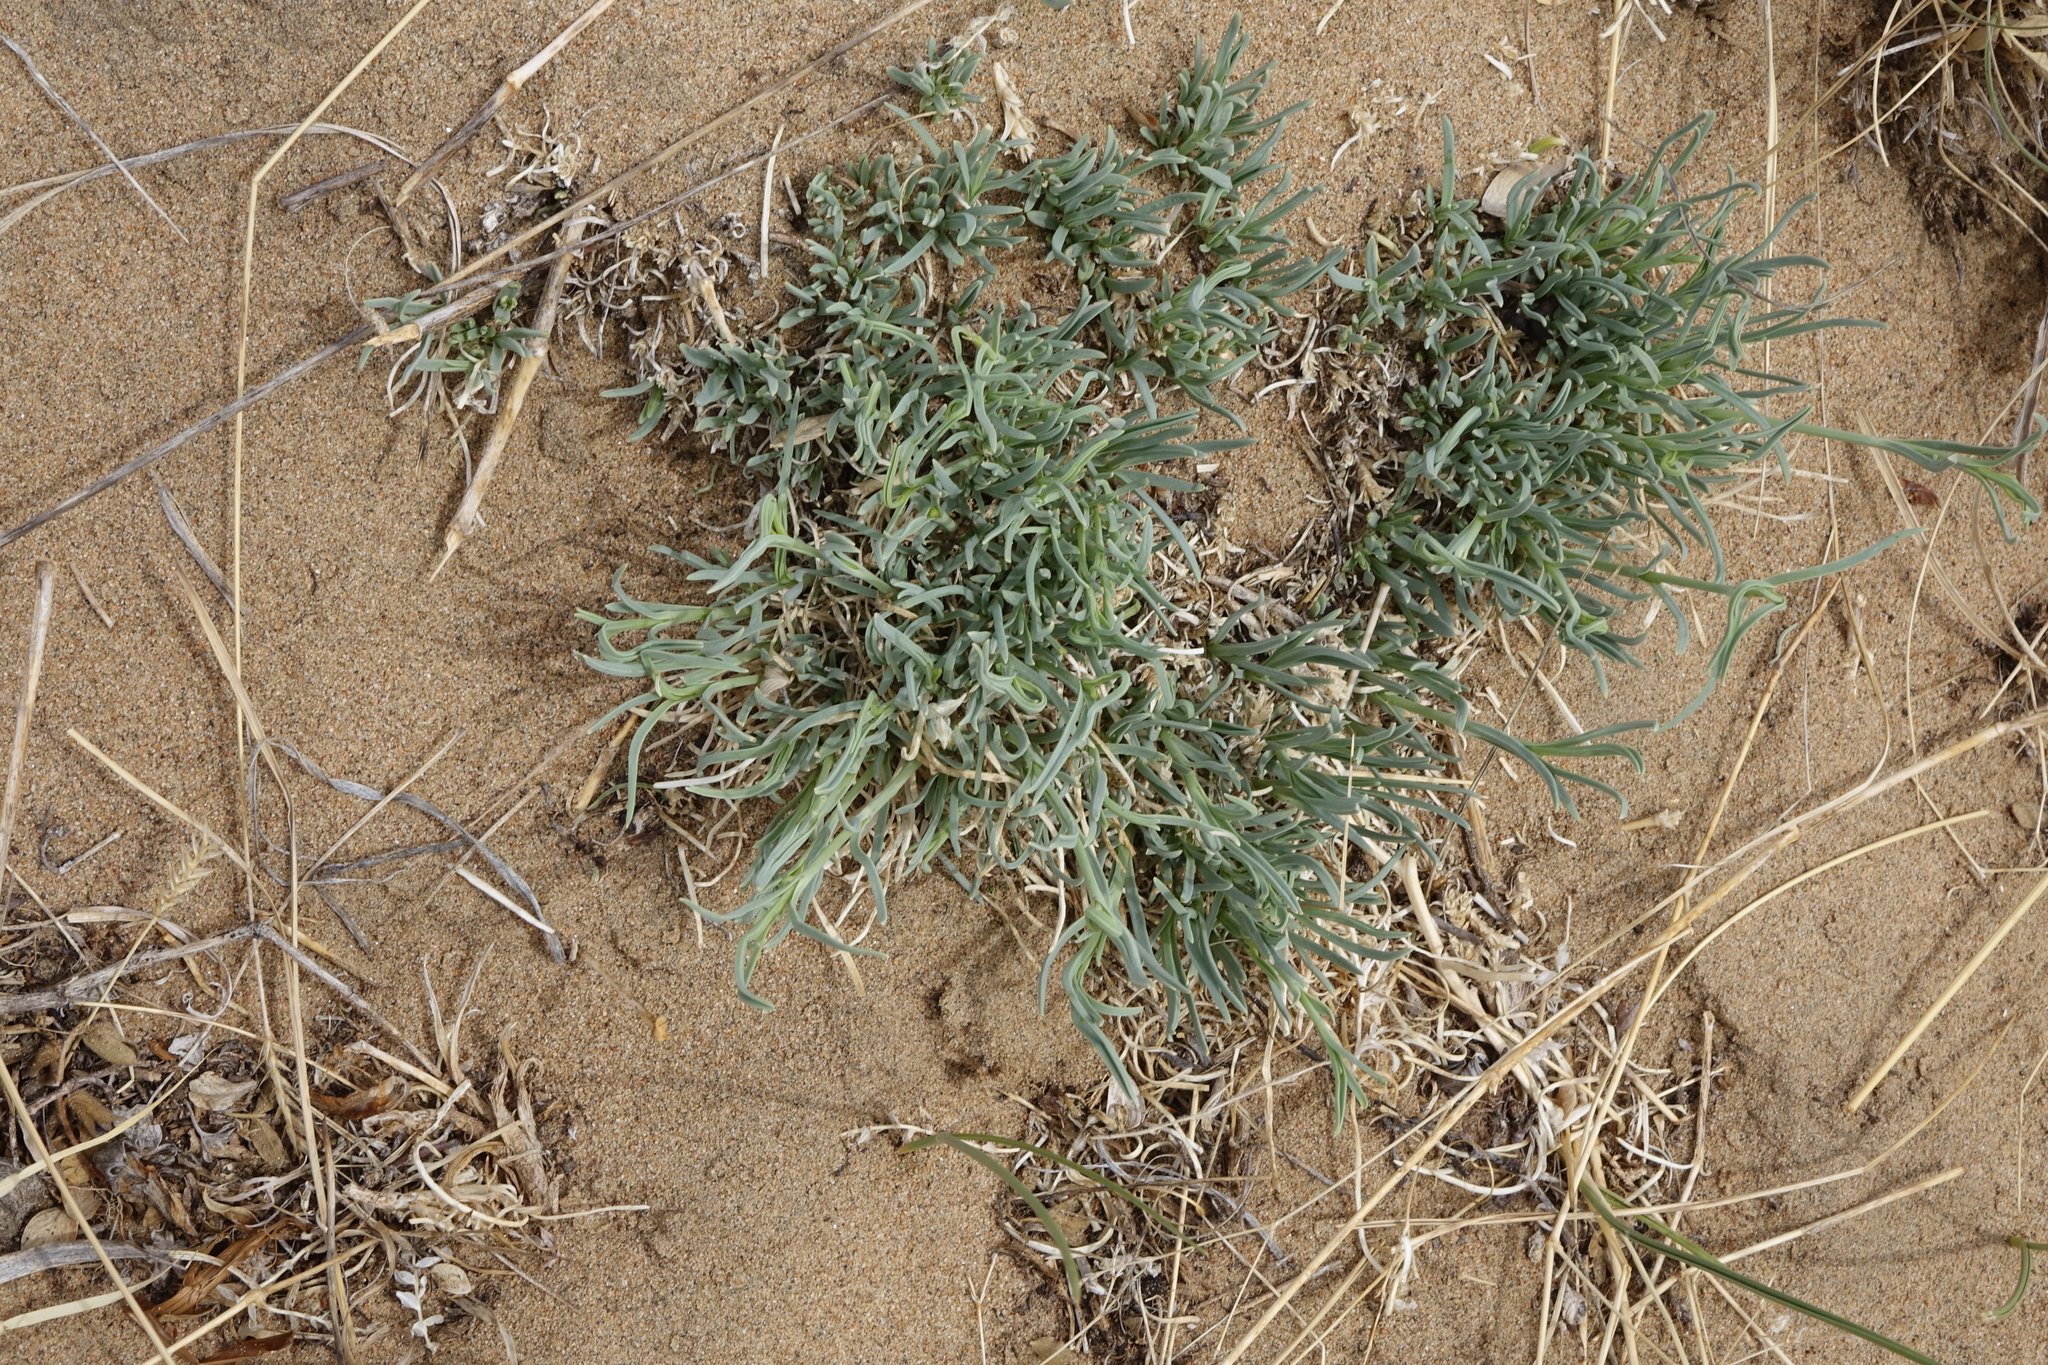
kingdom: Plantae
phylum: Tracheophyta
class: Magnoliopsida
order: Caryophyllales
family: Caryophyllaceae
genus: Gypsophila
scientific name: Gypsophila patrinii
